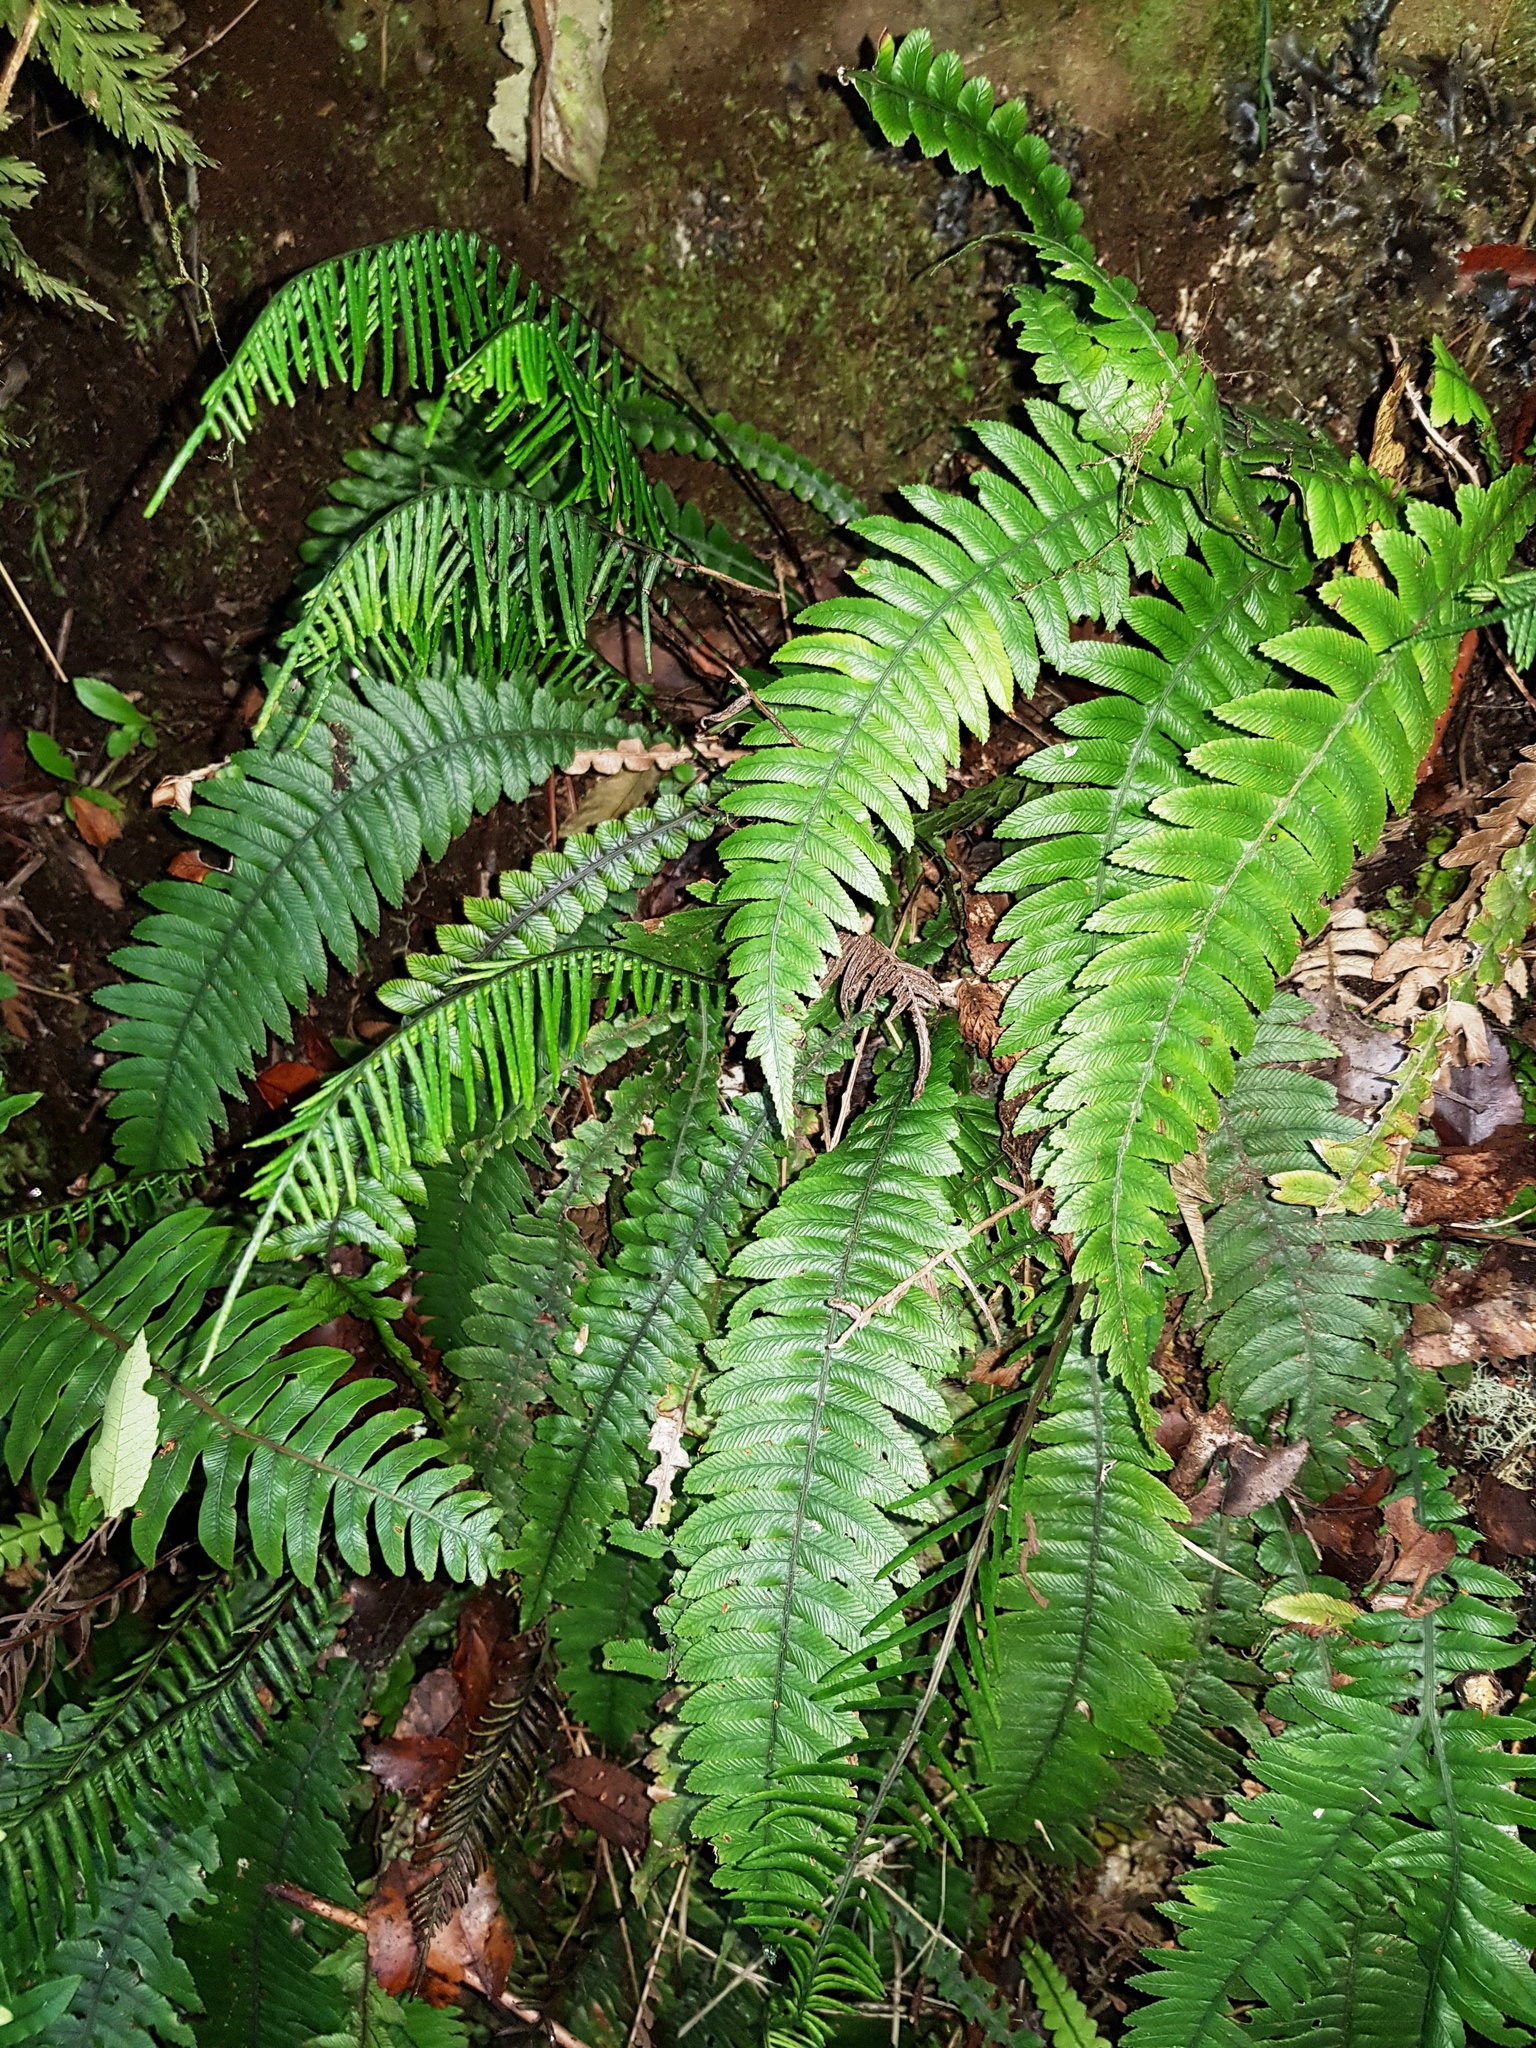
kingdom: Plantae
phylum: Tracheophyta
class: Polypodiopsida
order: Polypodiales
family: Blechnaceae
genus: Austroblechnum
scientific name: Austroblechnum lanceolatum
